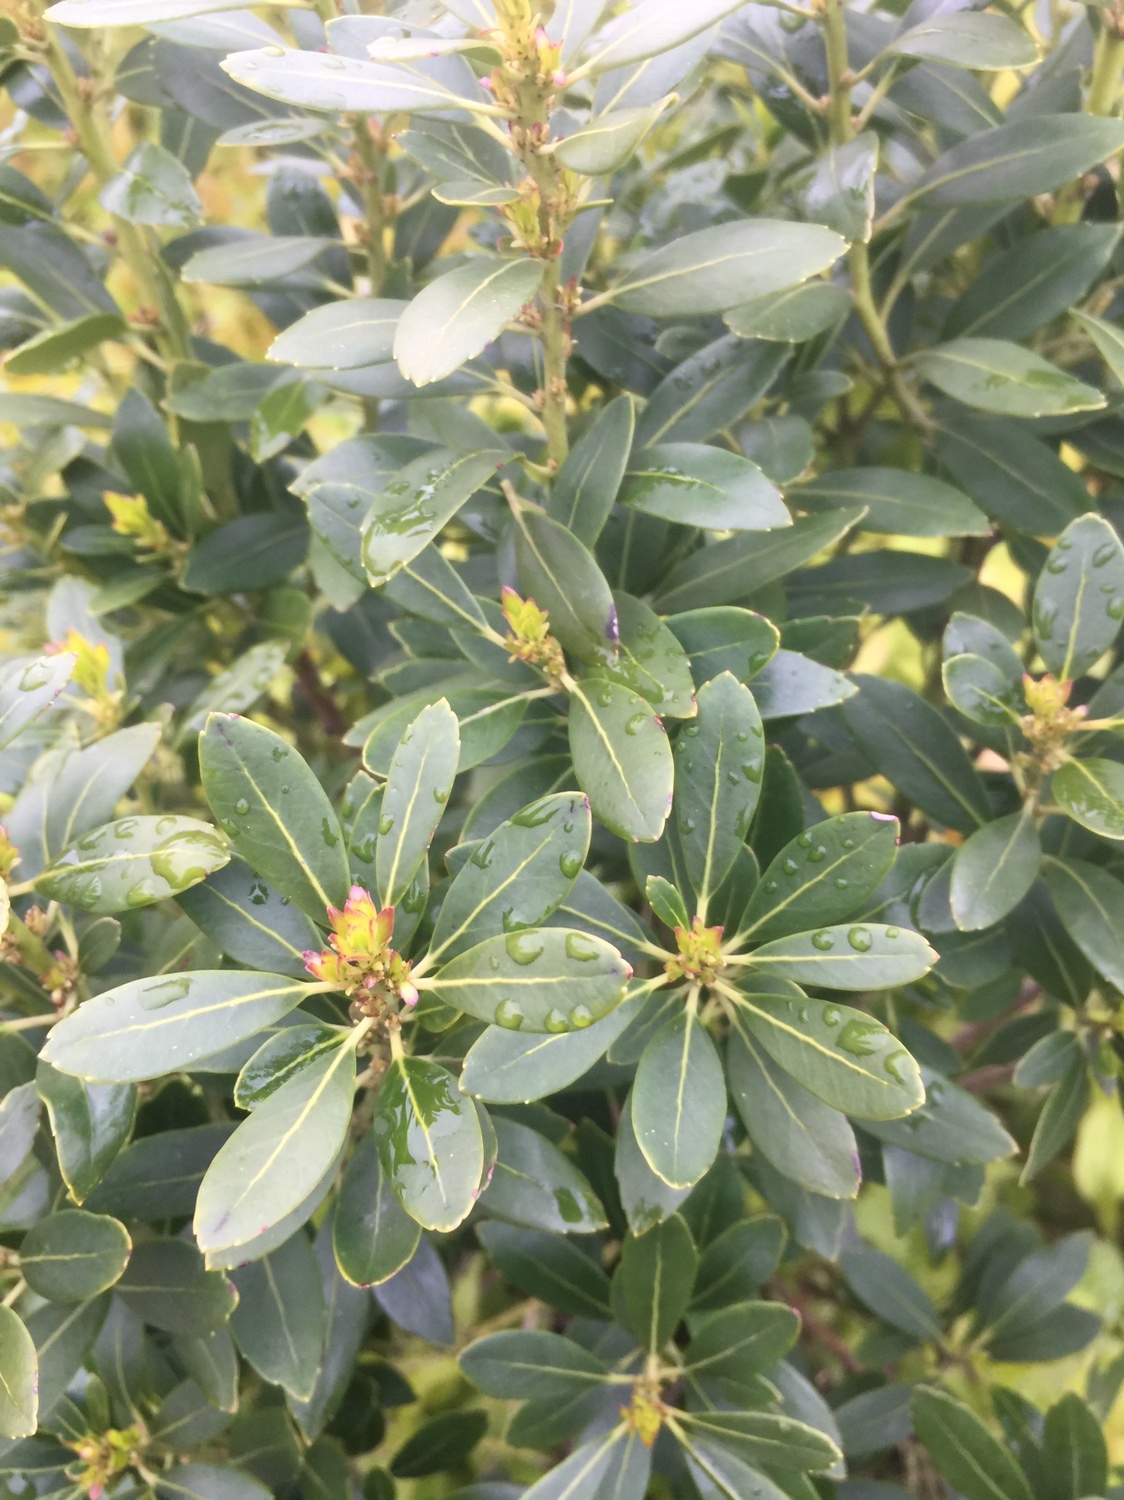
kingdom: Plantae
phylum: Tracheophyta
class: Magnoliopsida
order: Aquifoliales
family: Aquifoliaceae
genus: Ilex
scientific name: Ilex glabra
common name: Bitter gallberry
